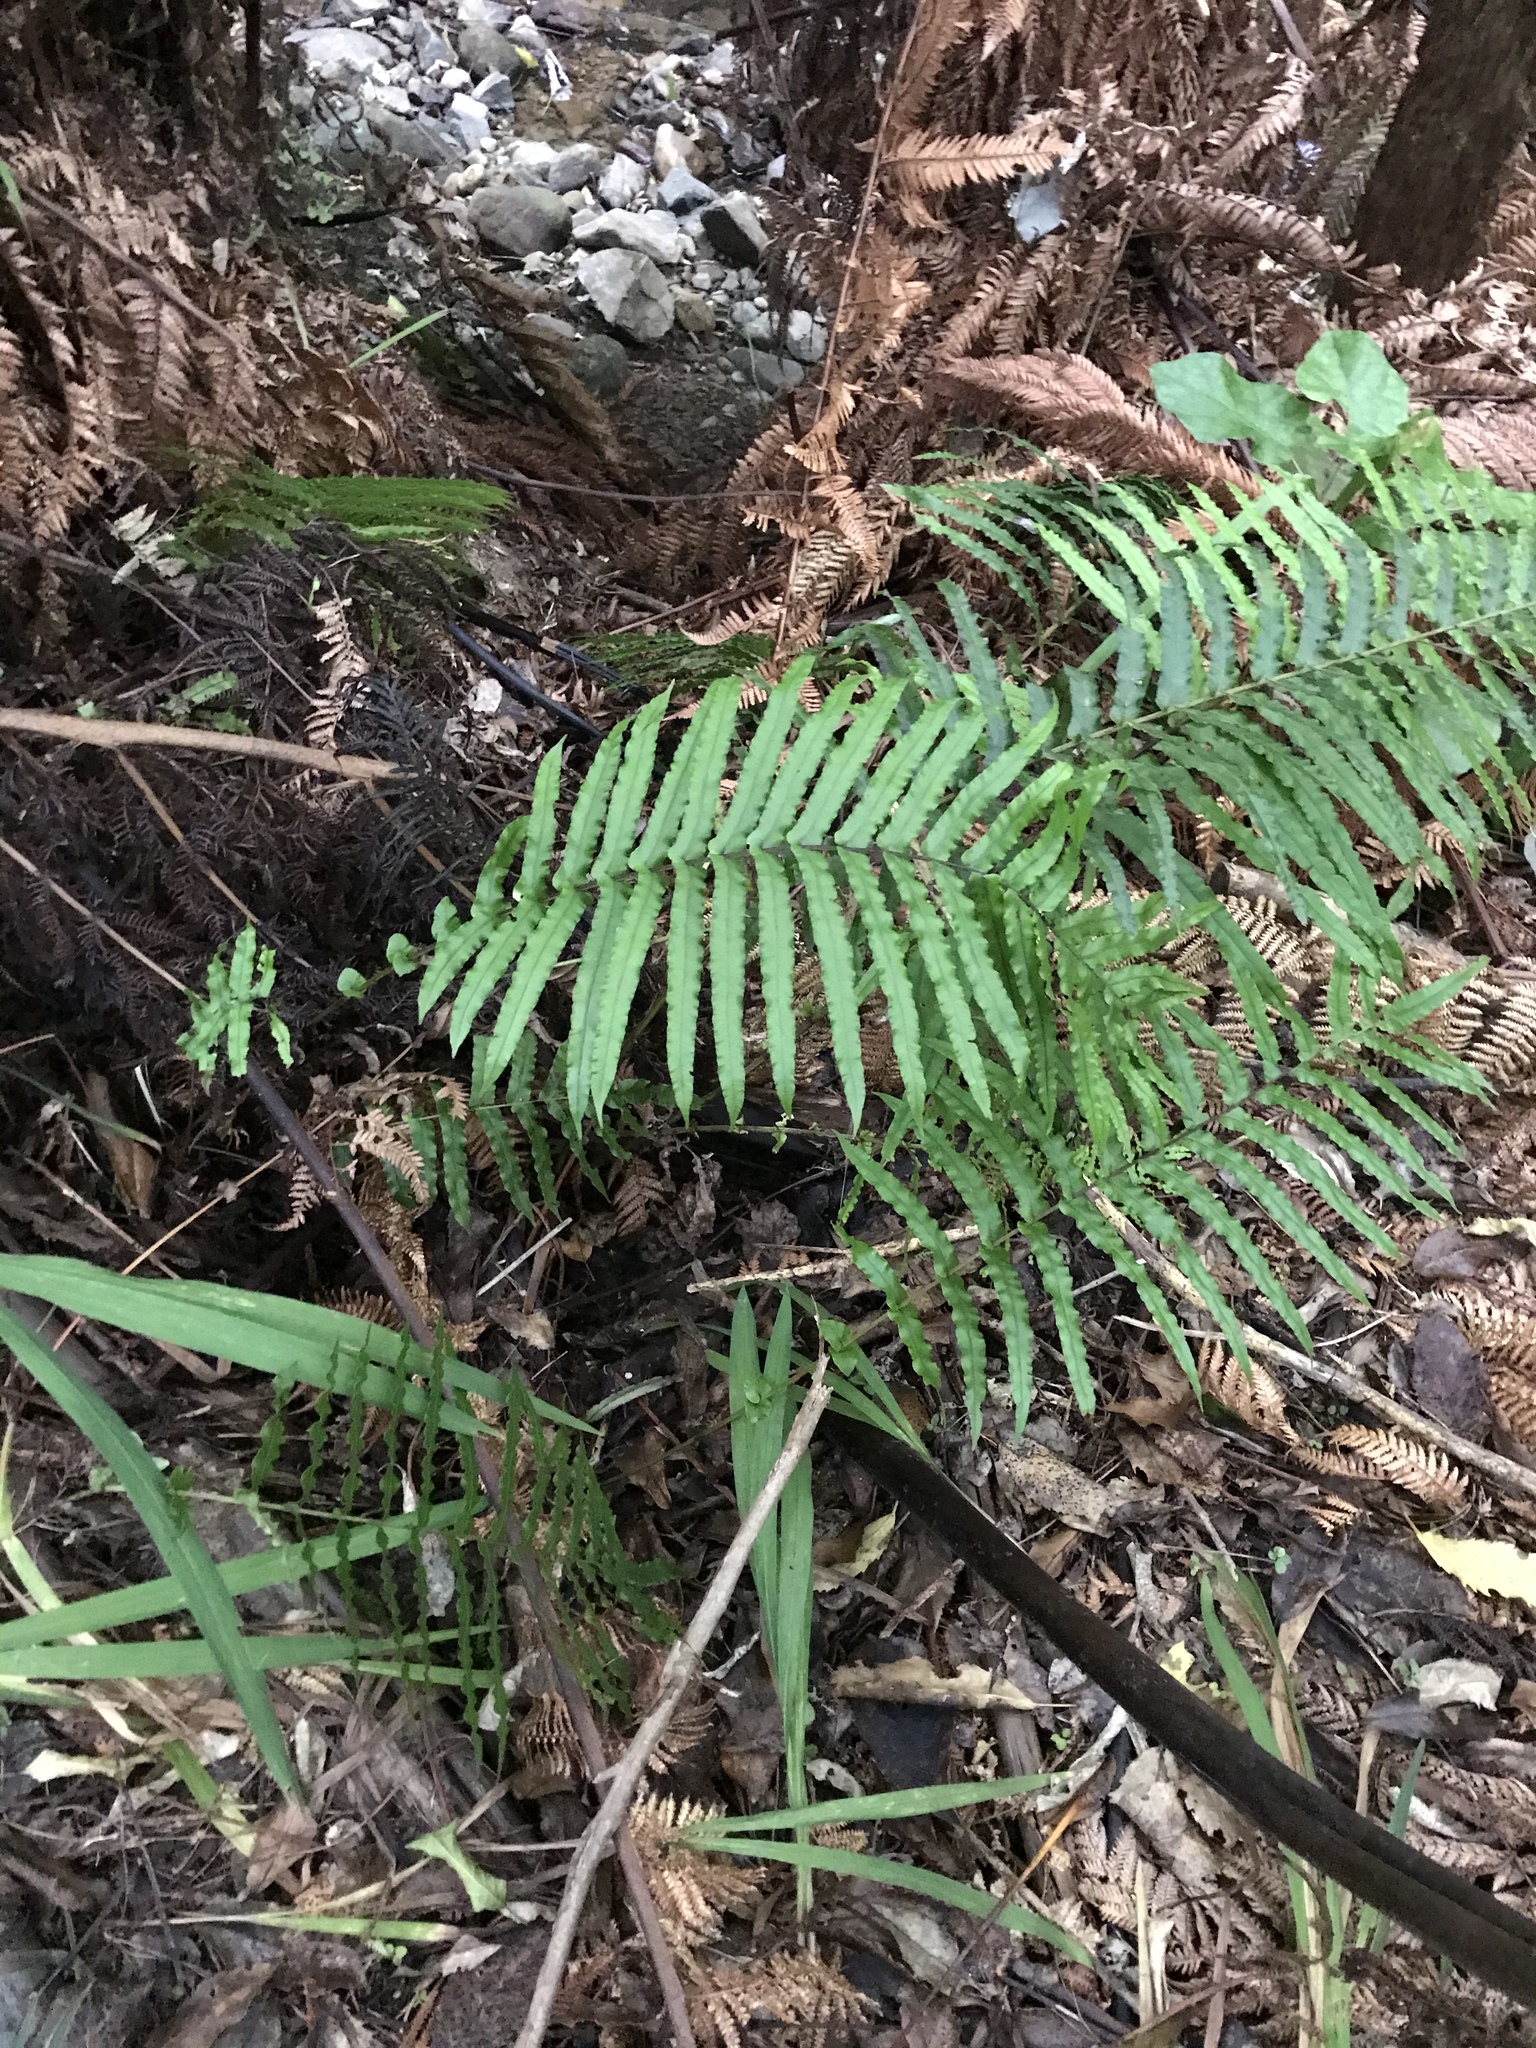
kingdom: Plantae
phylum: Tracheophyta
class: Polypodiopsida
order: Polypodiales
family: Blechnaceae
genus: Parablechnum
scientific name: Parablechnum novae-zelandiae
